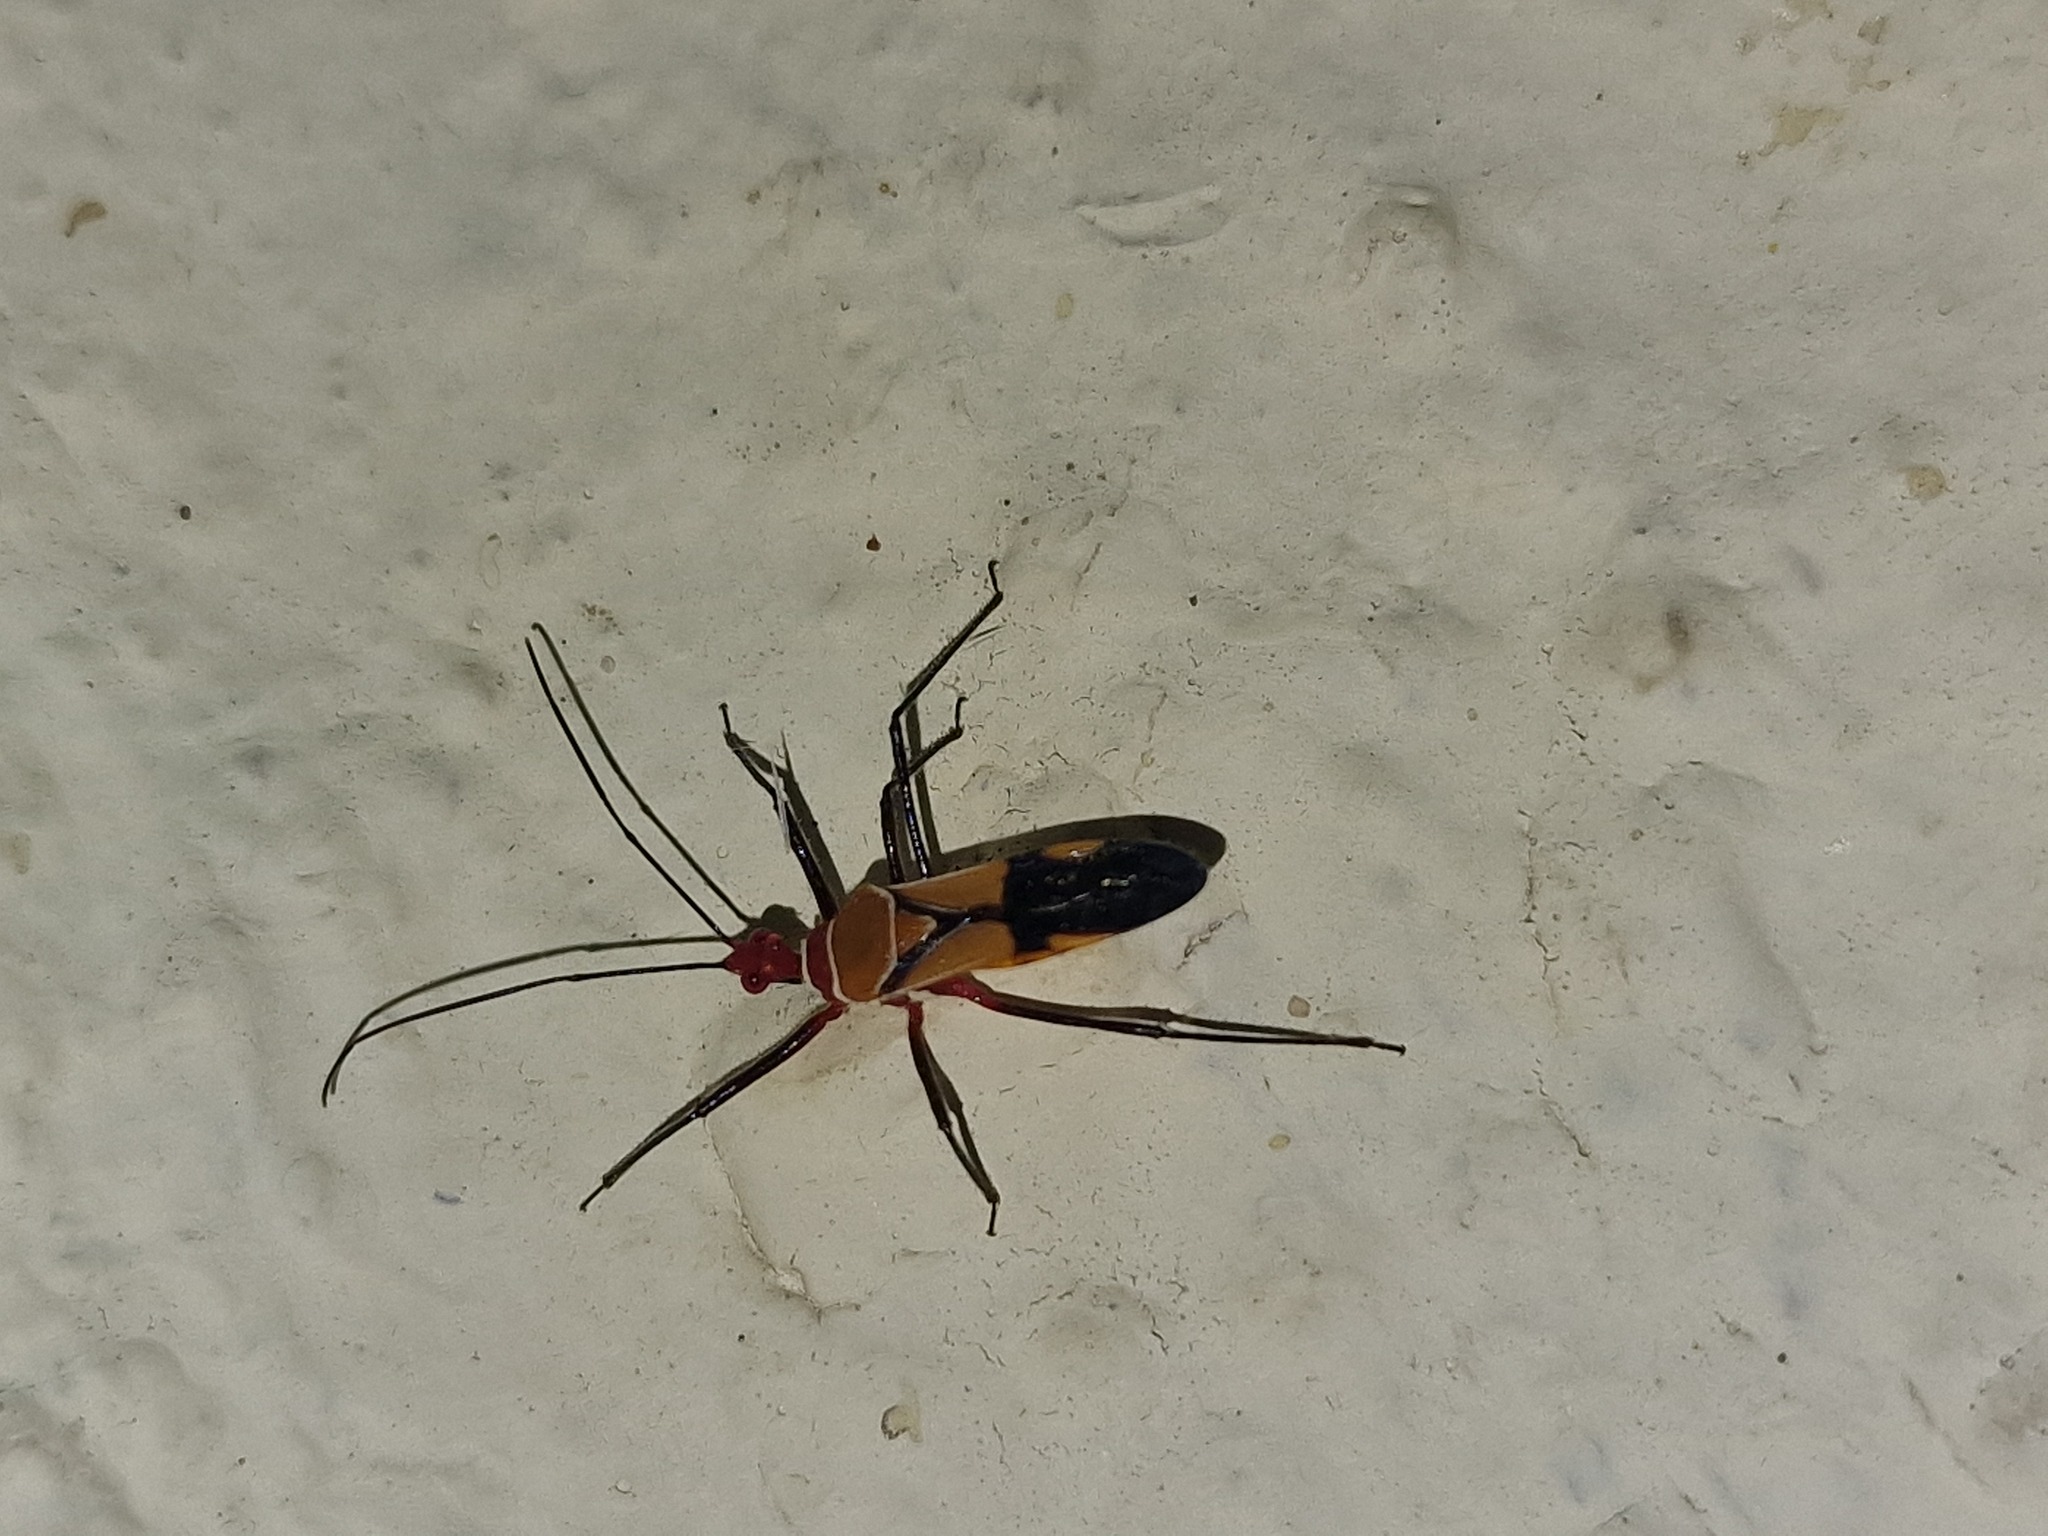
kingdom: Animalia
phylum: Arthropoda
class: Insecta
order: Hemiptera
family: Reduviidae
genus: Hediocoris
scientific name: Hediocoris tibialis
